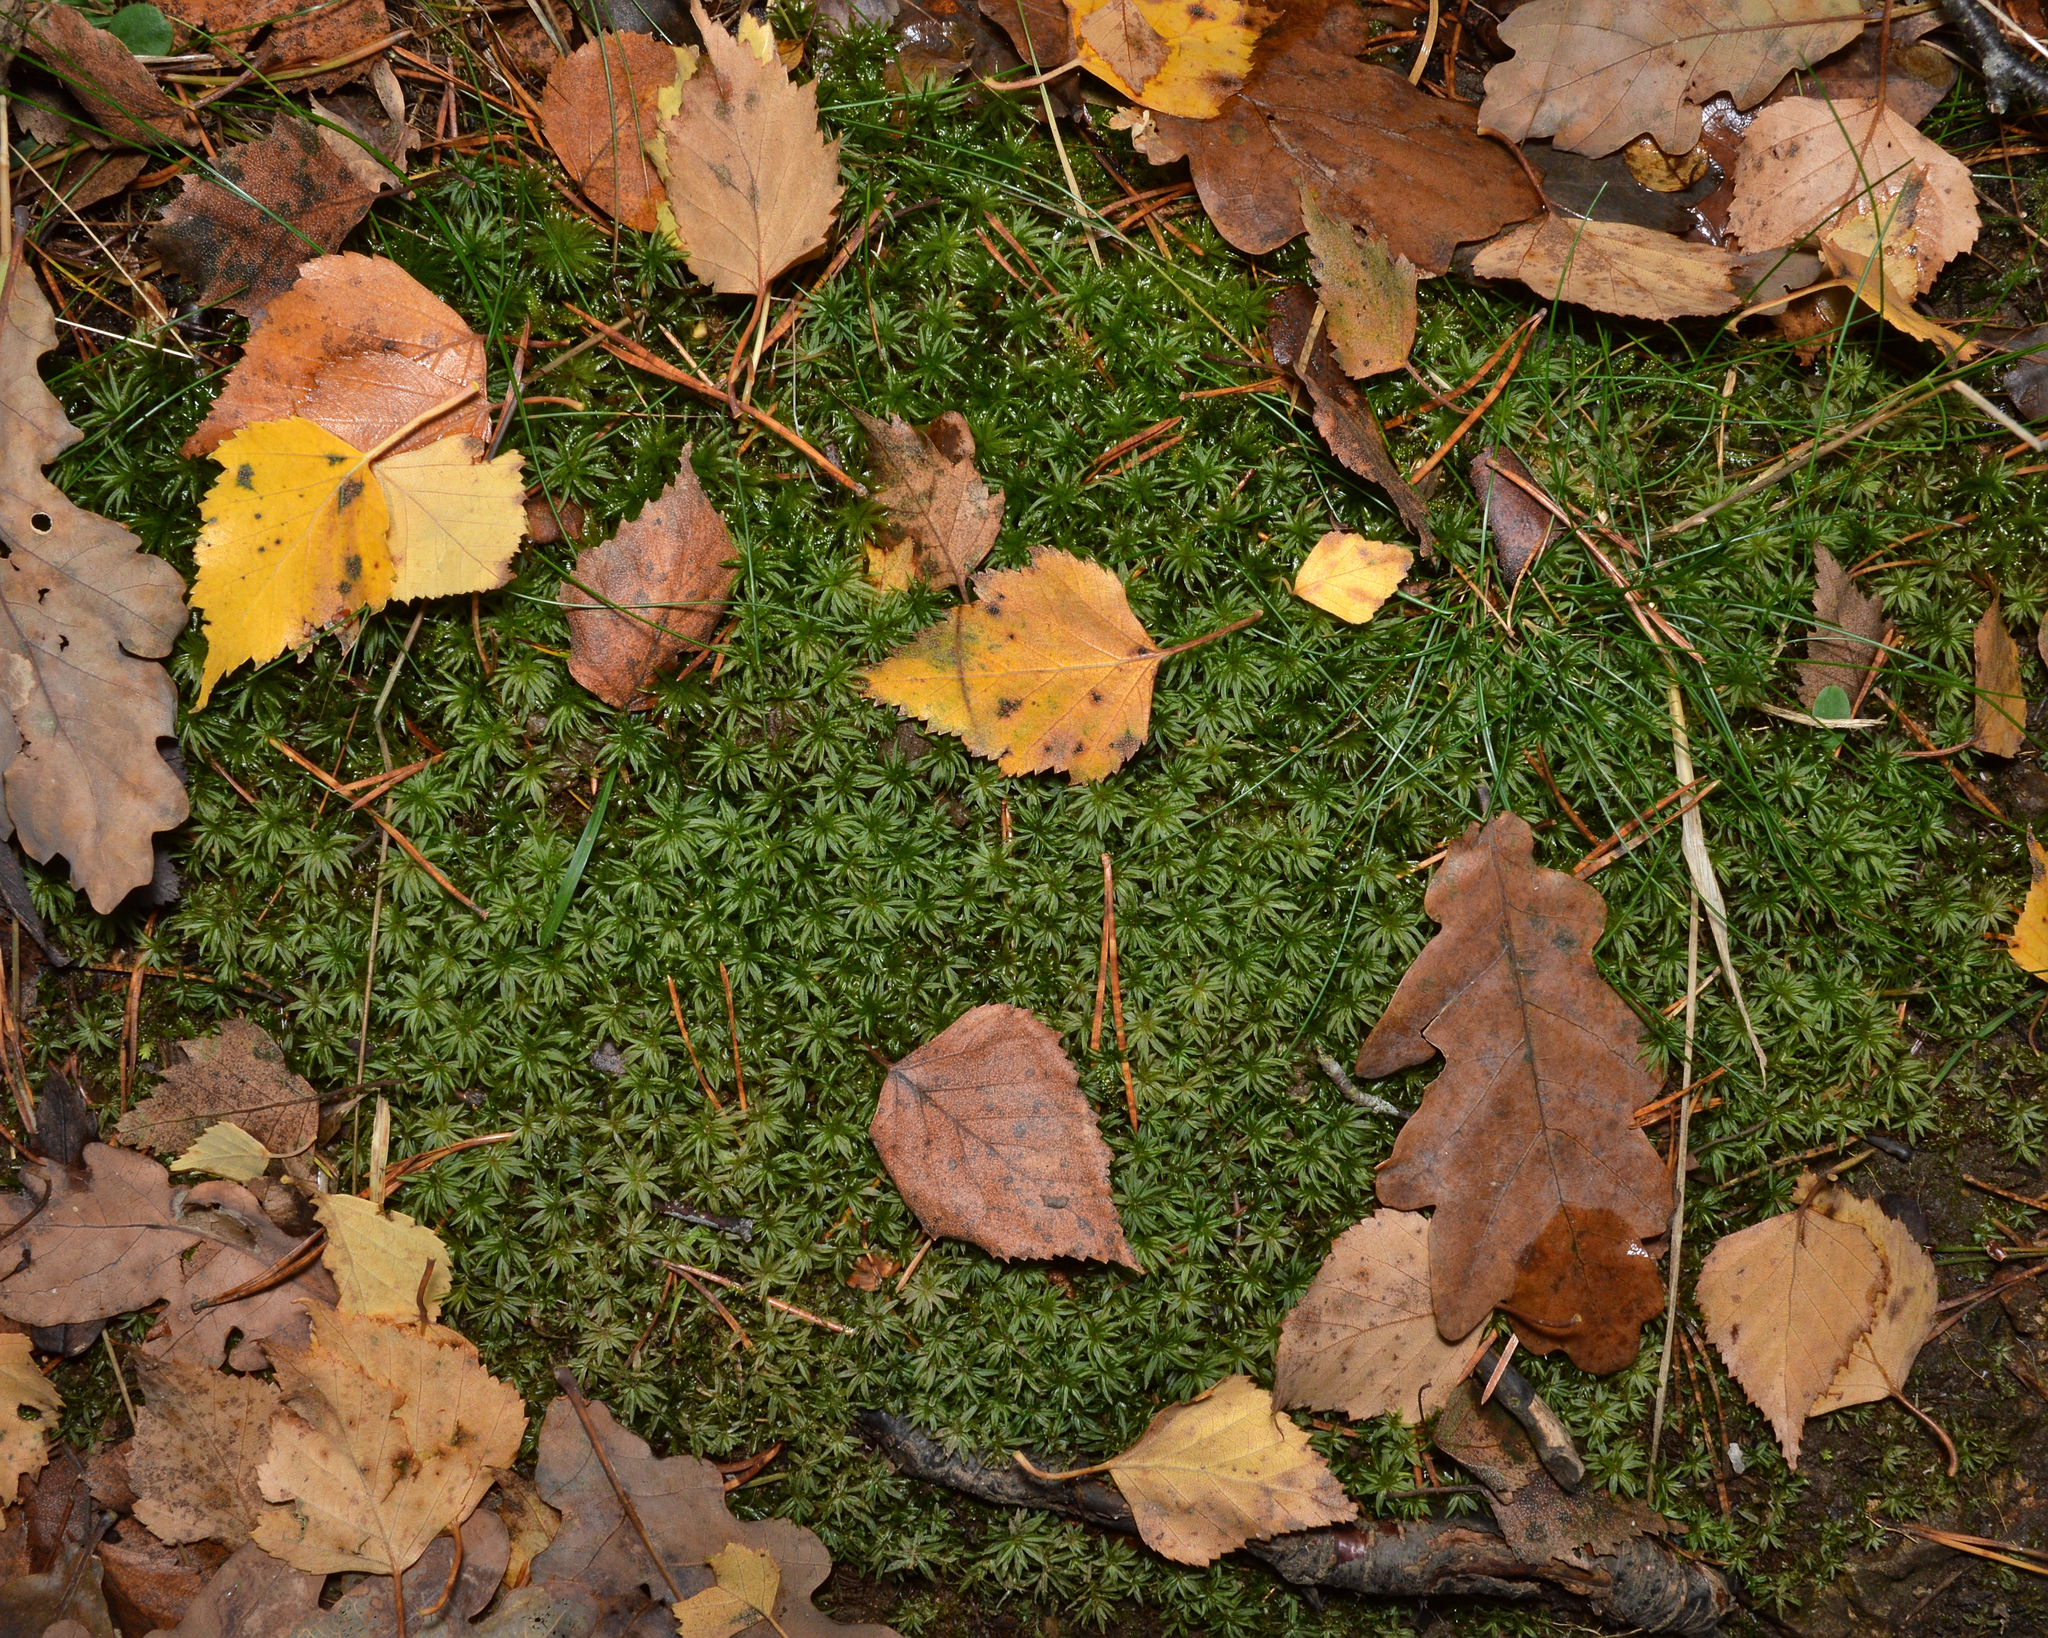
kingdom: Plantae
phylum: Bryophyta
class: Polytrichopsida
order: Polytrichales
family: Polytrichaceae
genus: Atrichum
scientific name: Atrichum undulatum
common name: Common smoothcap
